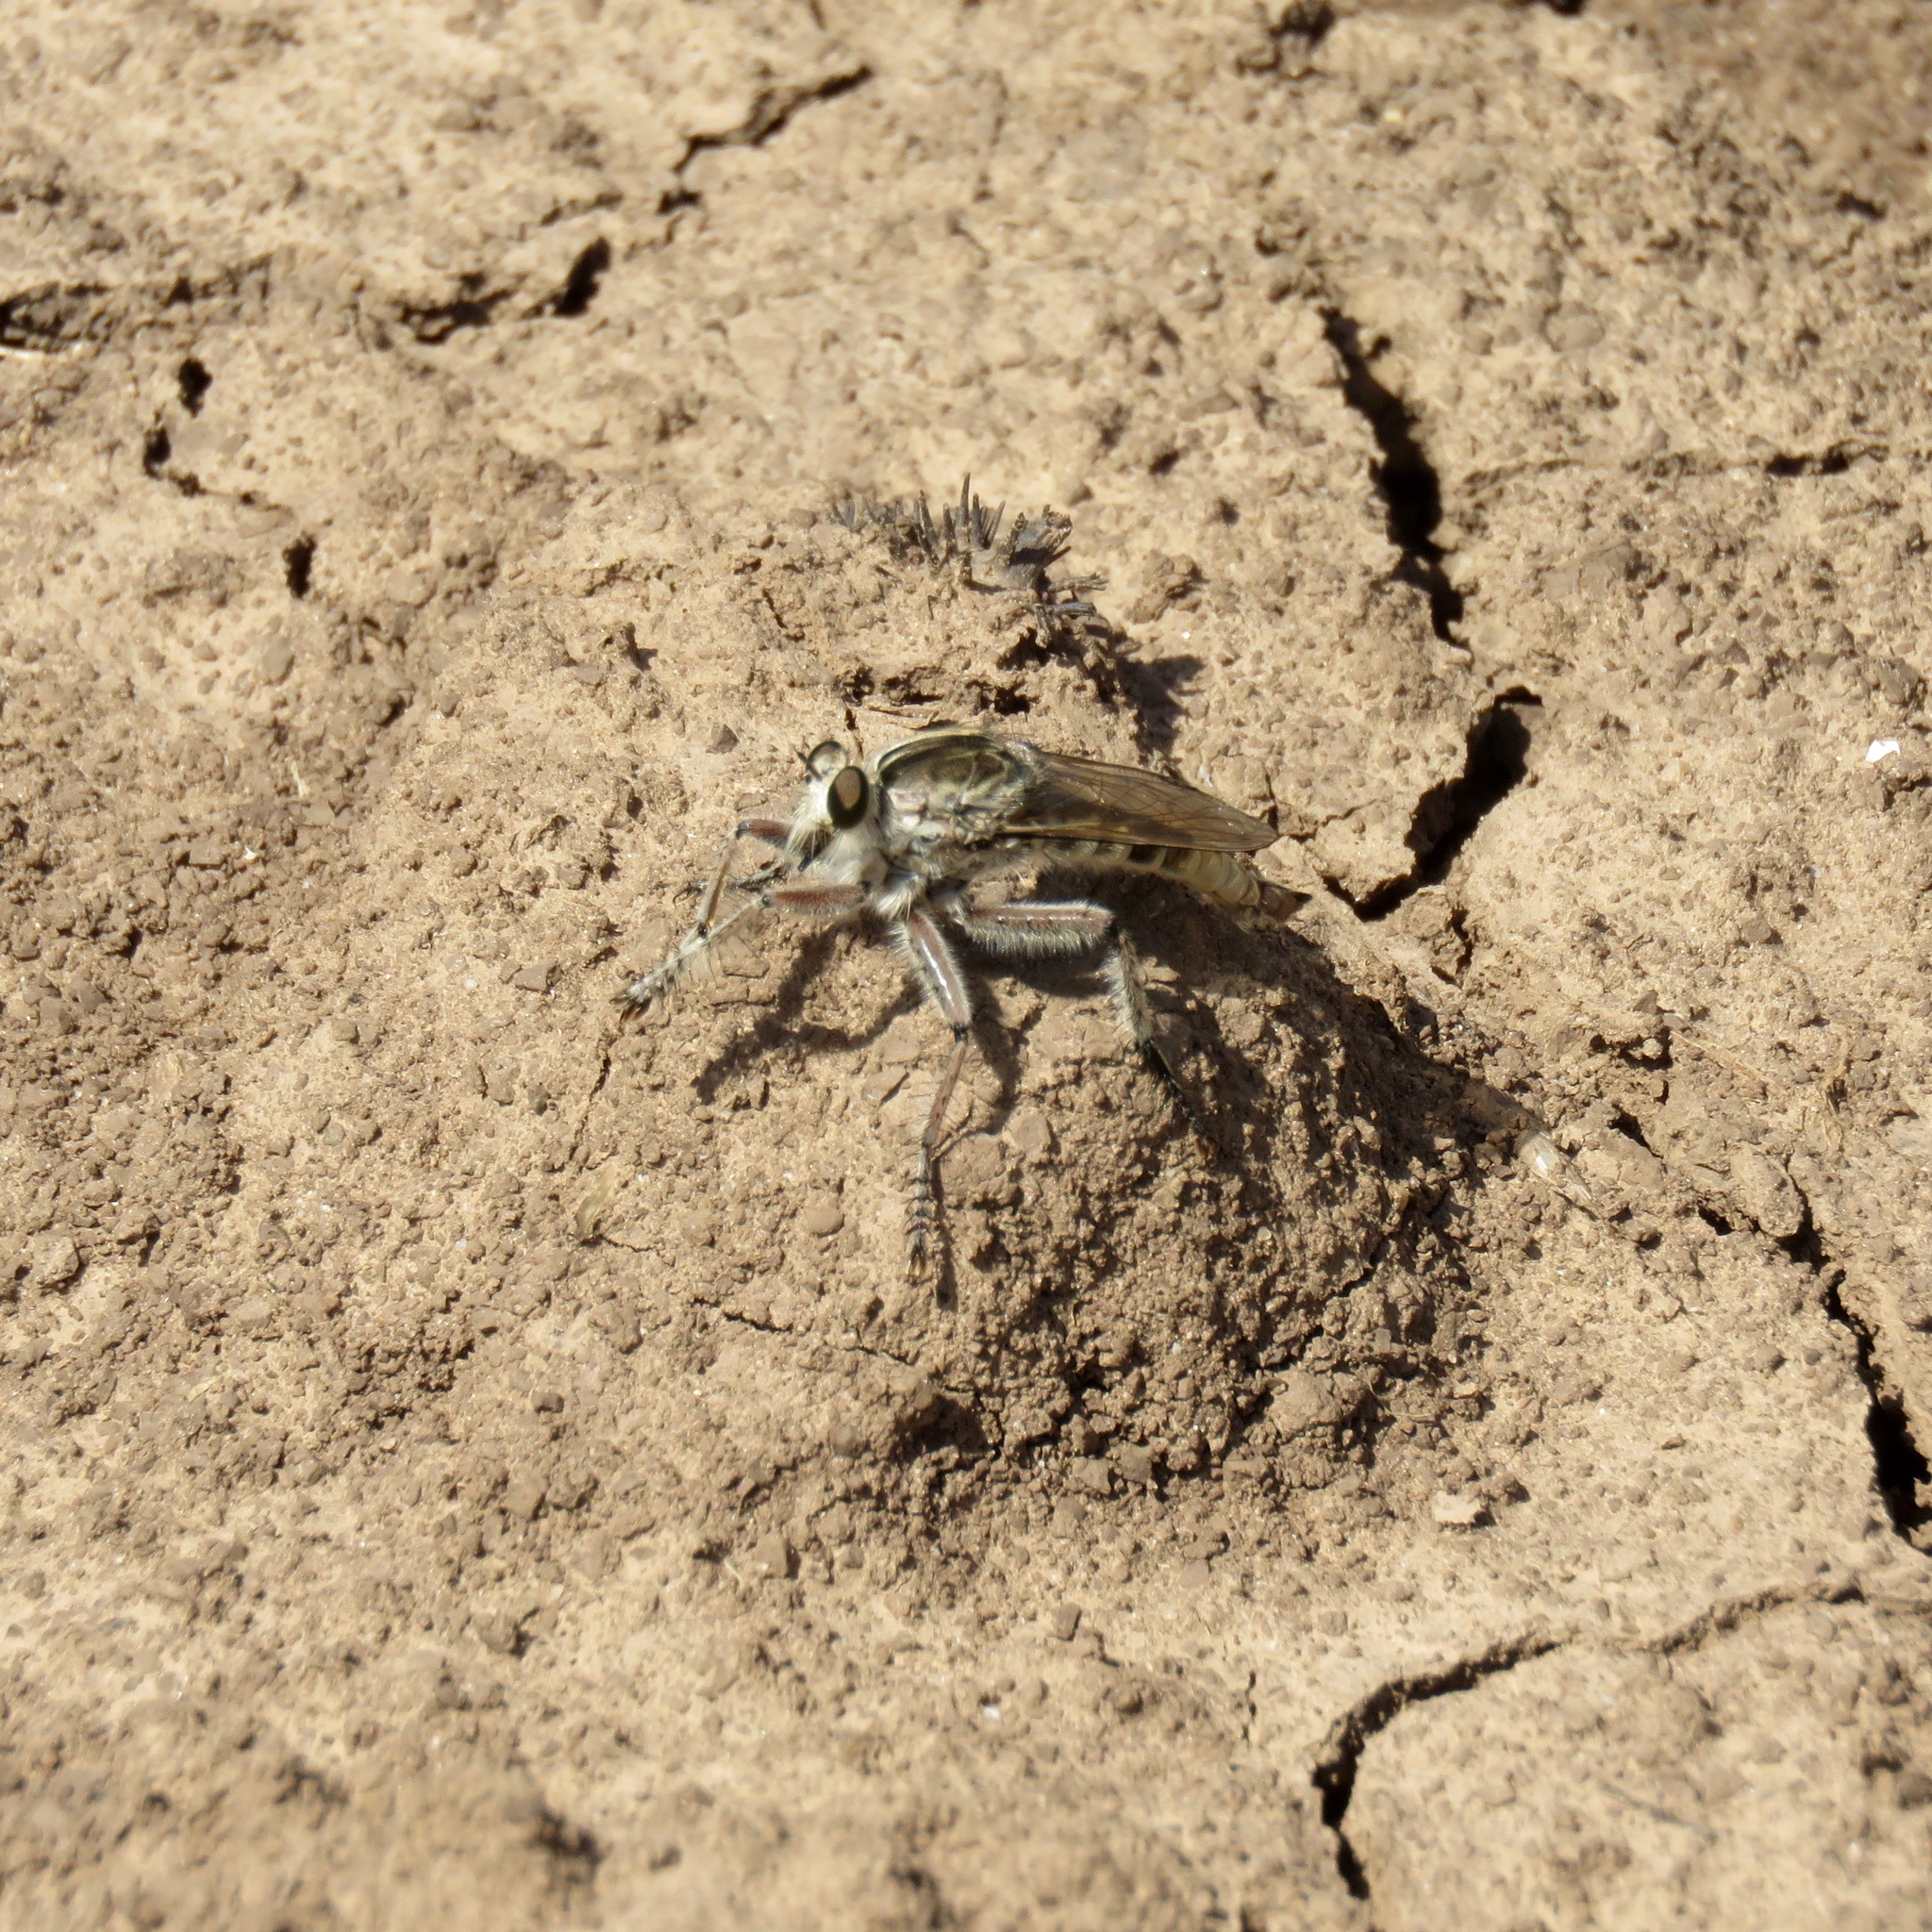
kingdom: Animalia
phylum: Arthropoda
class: Insecta
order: Diptera
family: Asilidae
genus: Triorla
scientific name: Triorla interrupta
